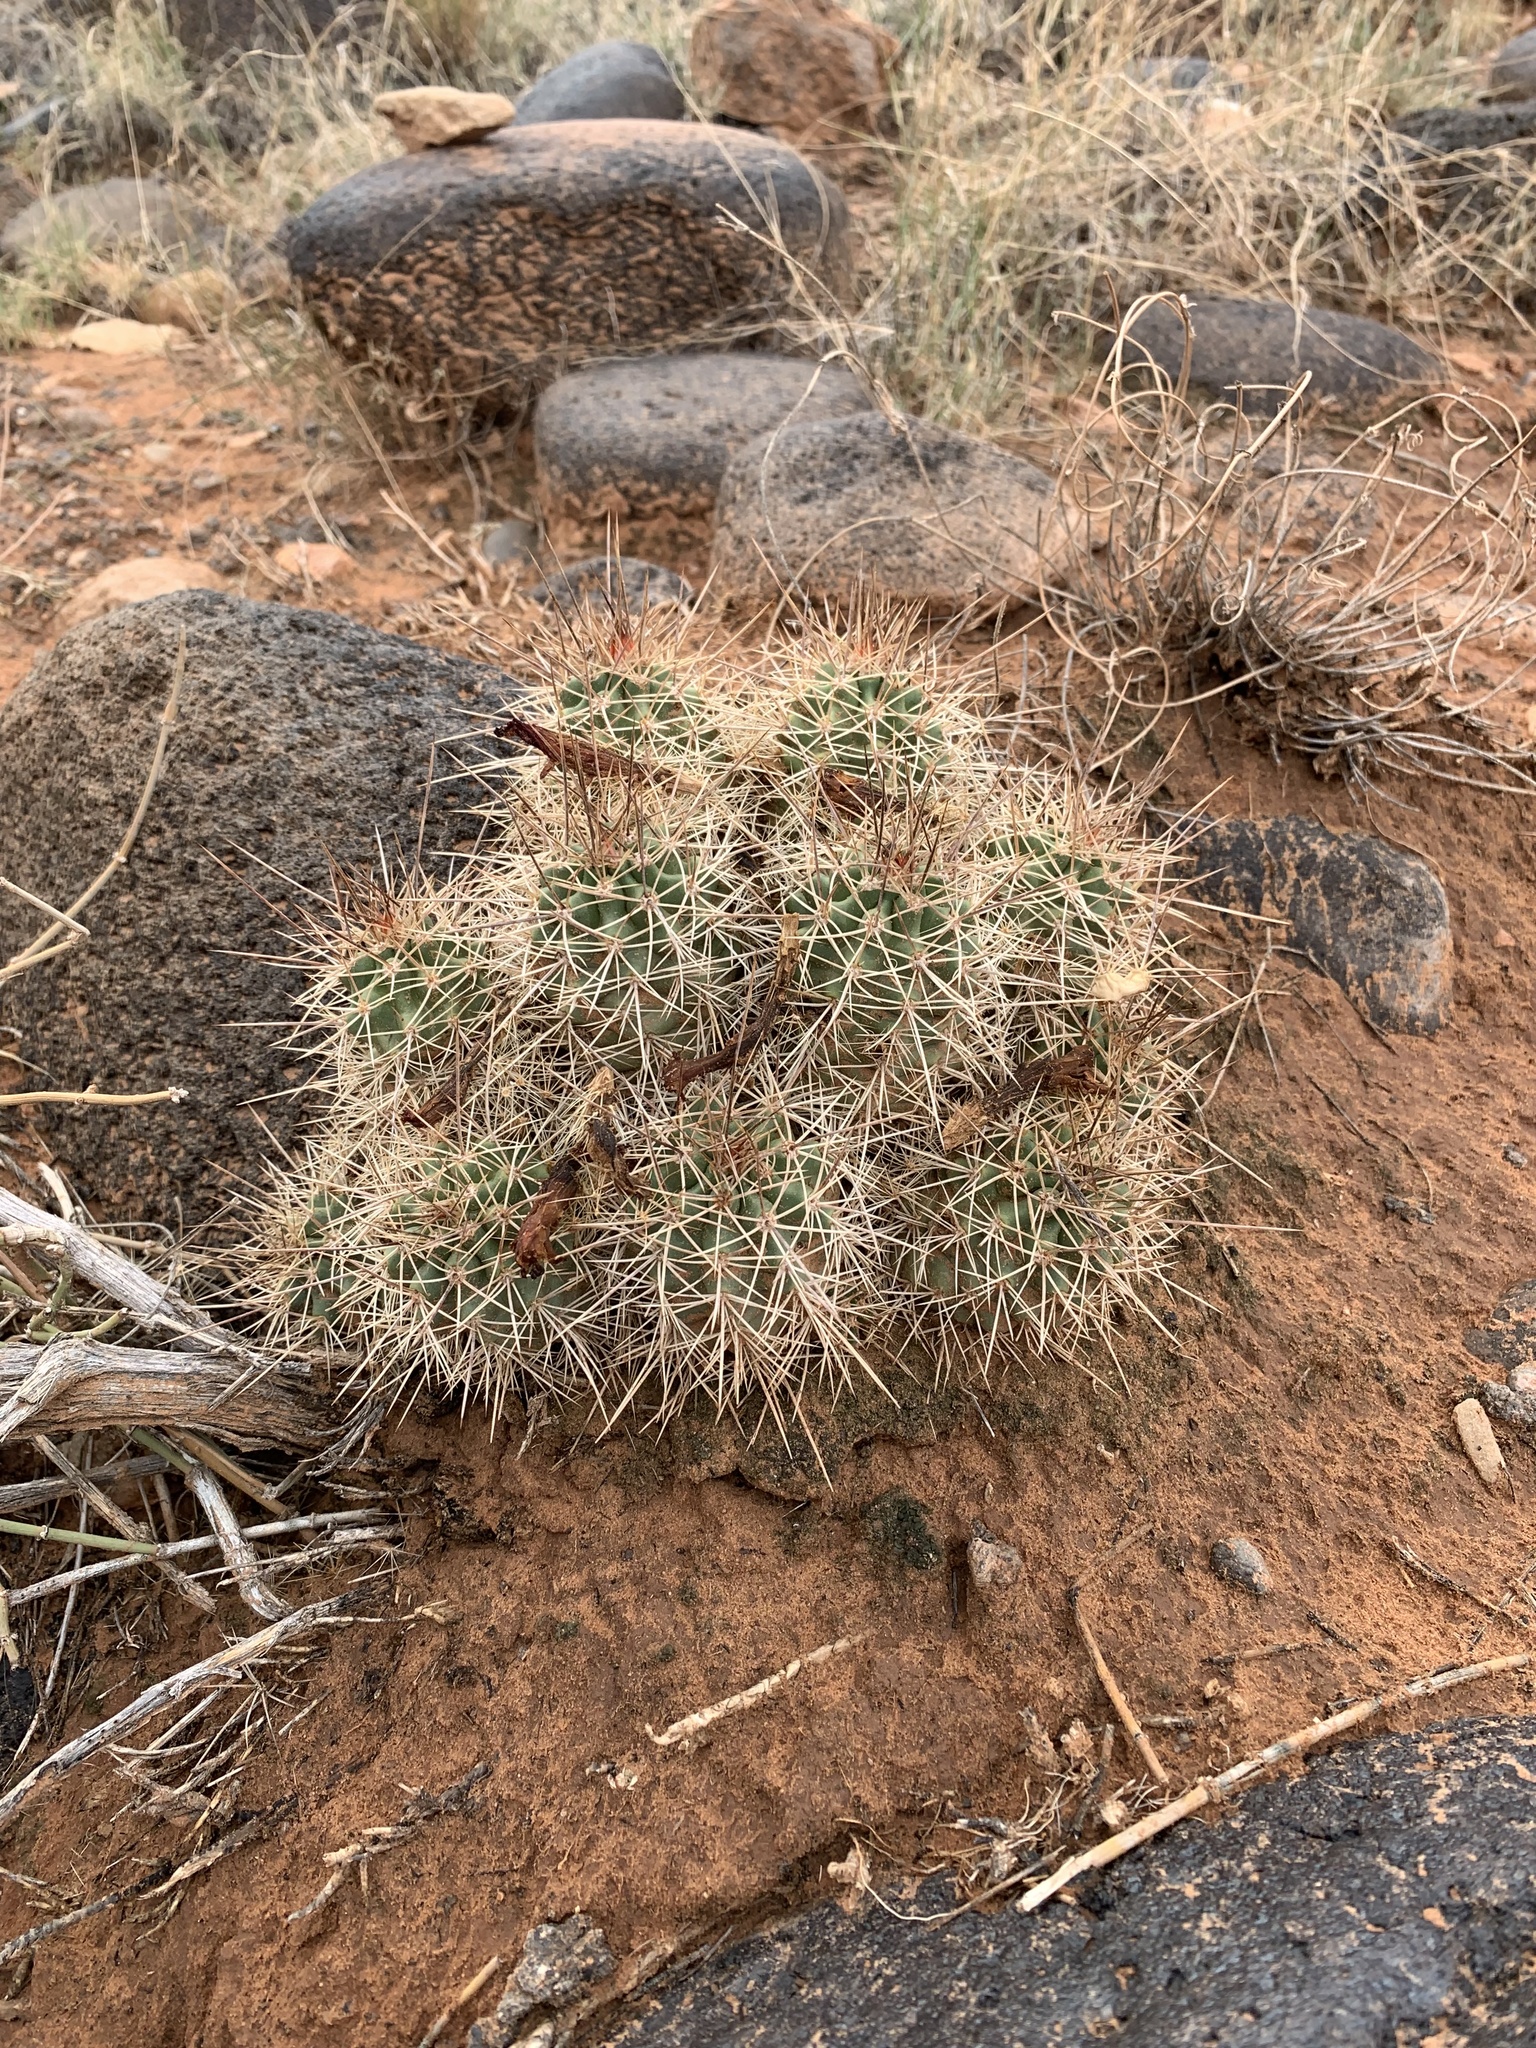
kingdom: Plantae
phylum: Tracheophyta
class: Magnoliopsida
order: Caryophyllales
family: Cactaceae
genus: Echinocereus
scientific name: Echinocereus triglochidiatus
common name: Claretcup hedgehog
